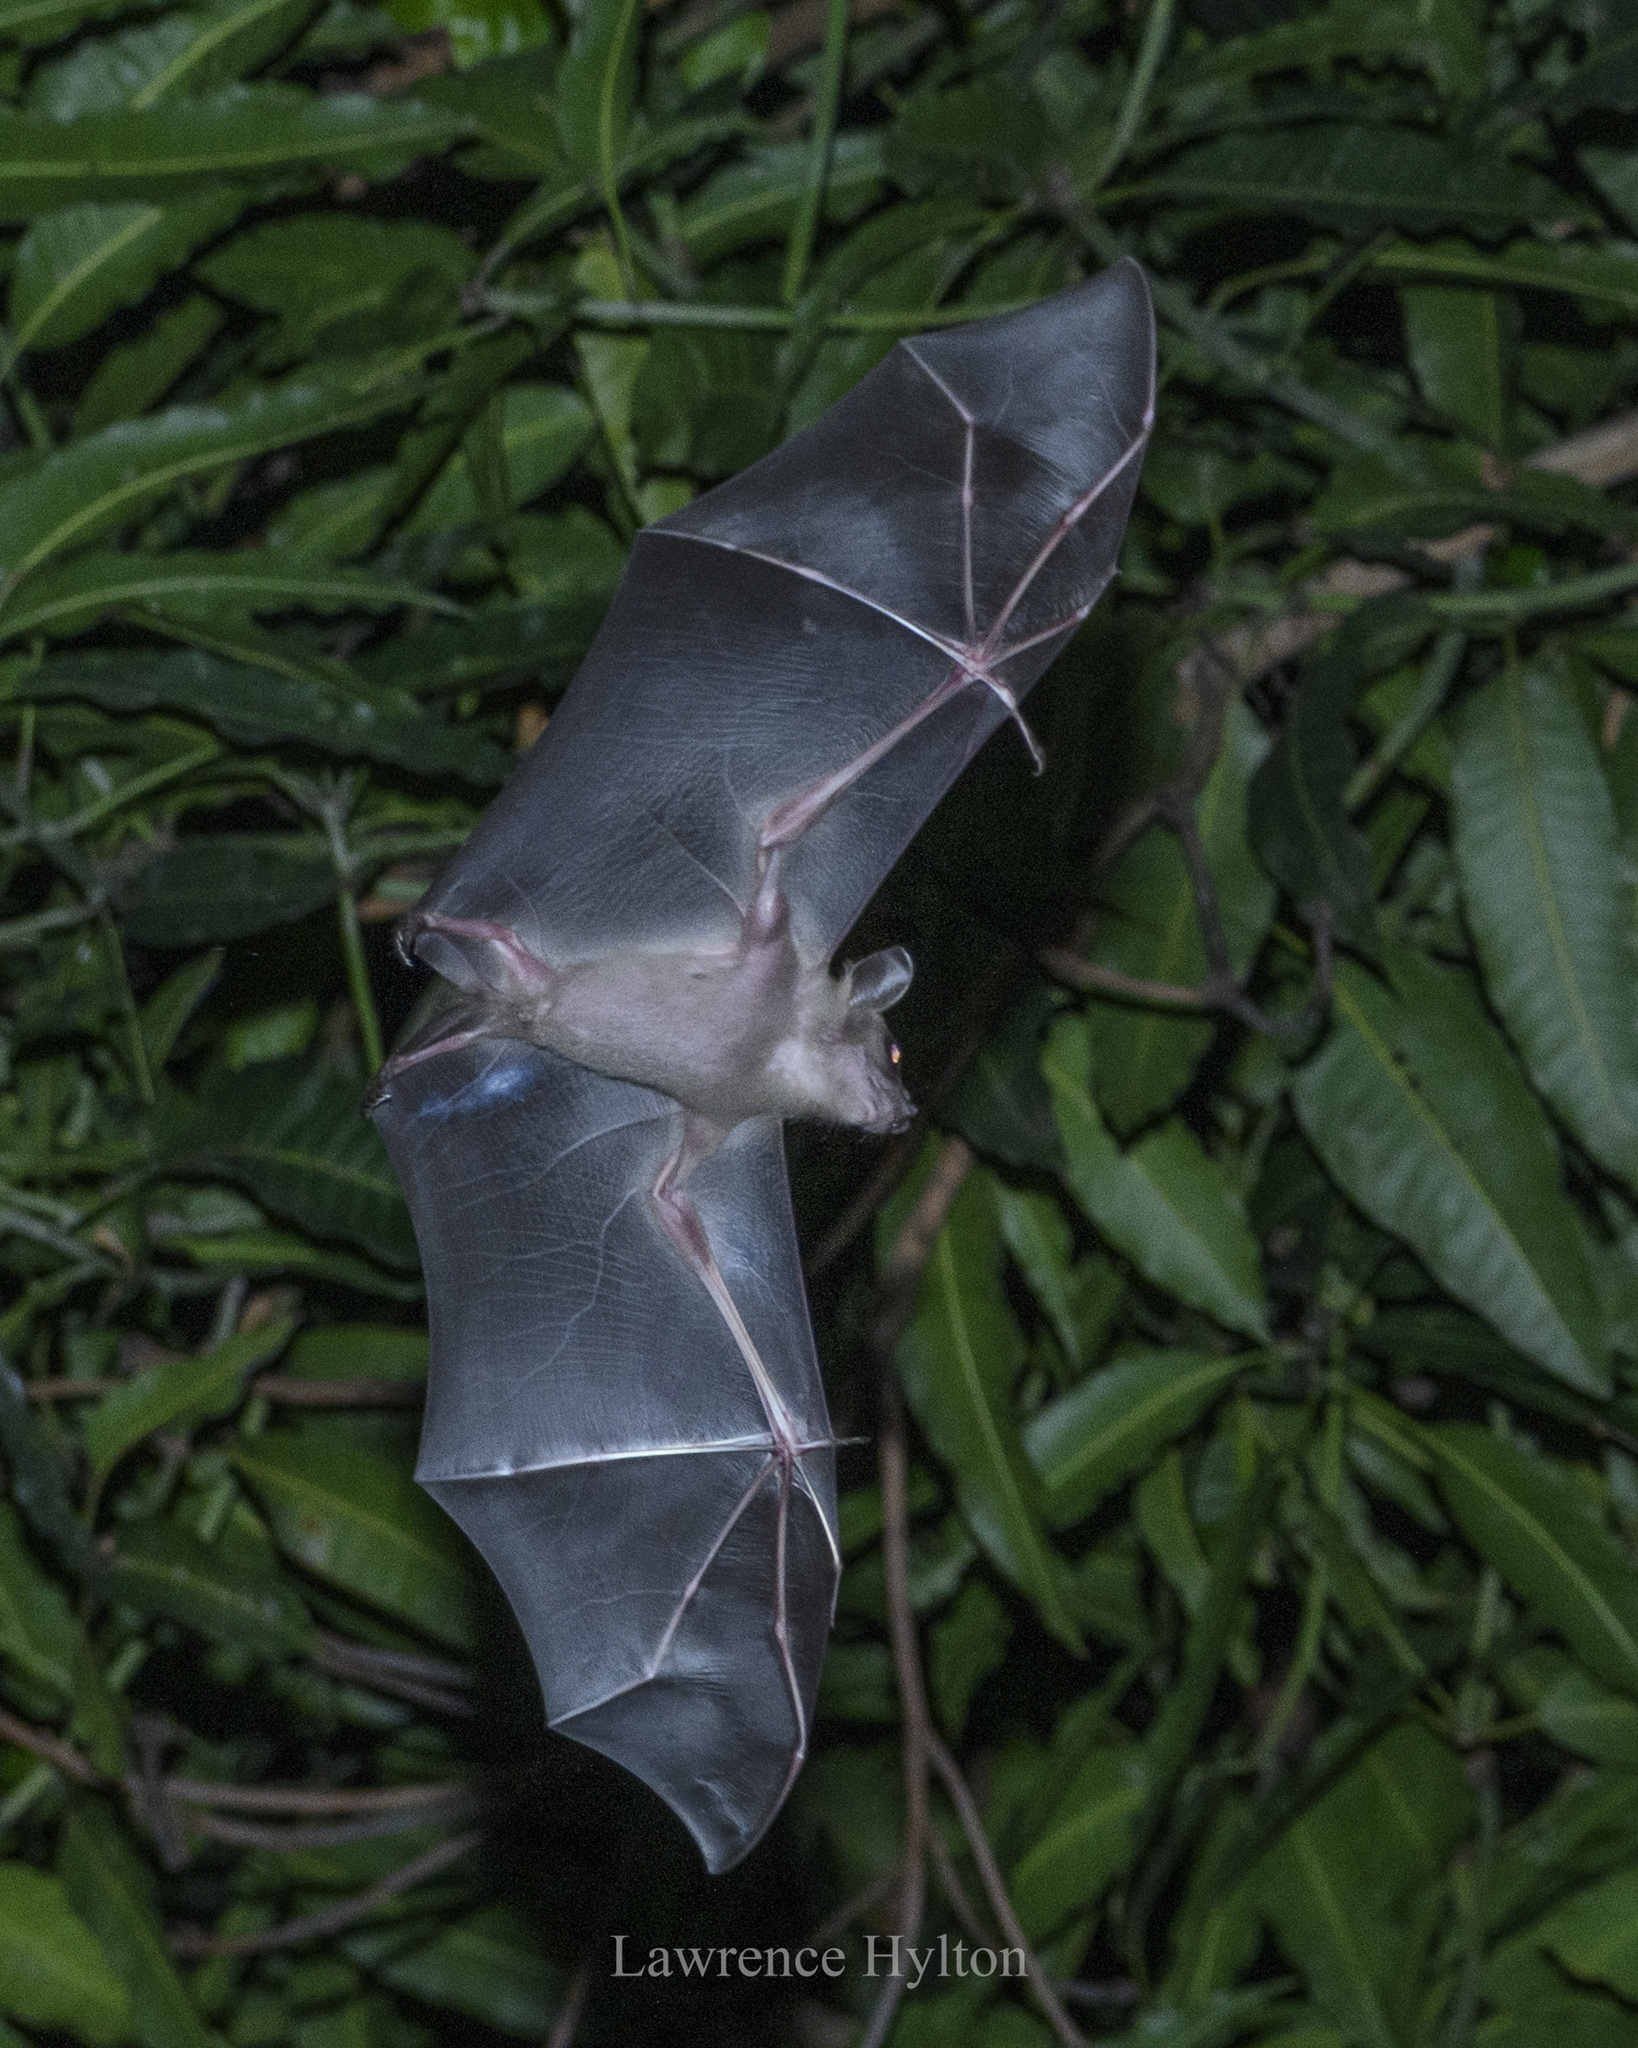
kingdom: Animalia
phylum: Chordata
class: Mammalia
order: Chiroptera
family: Pteropodidae
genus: Cynopterus
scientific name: Cynopterus sphinx
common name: Greater short-nosed fruit bat
